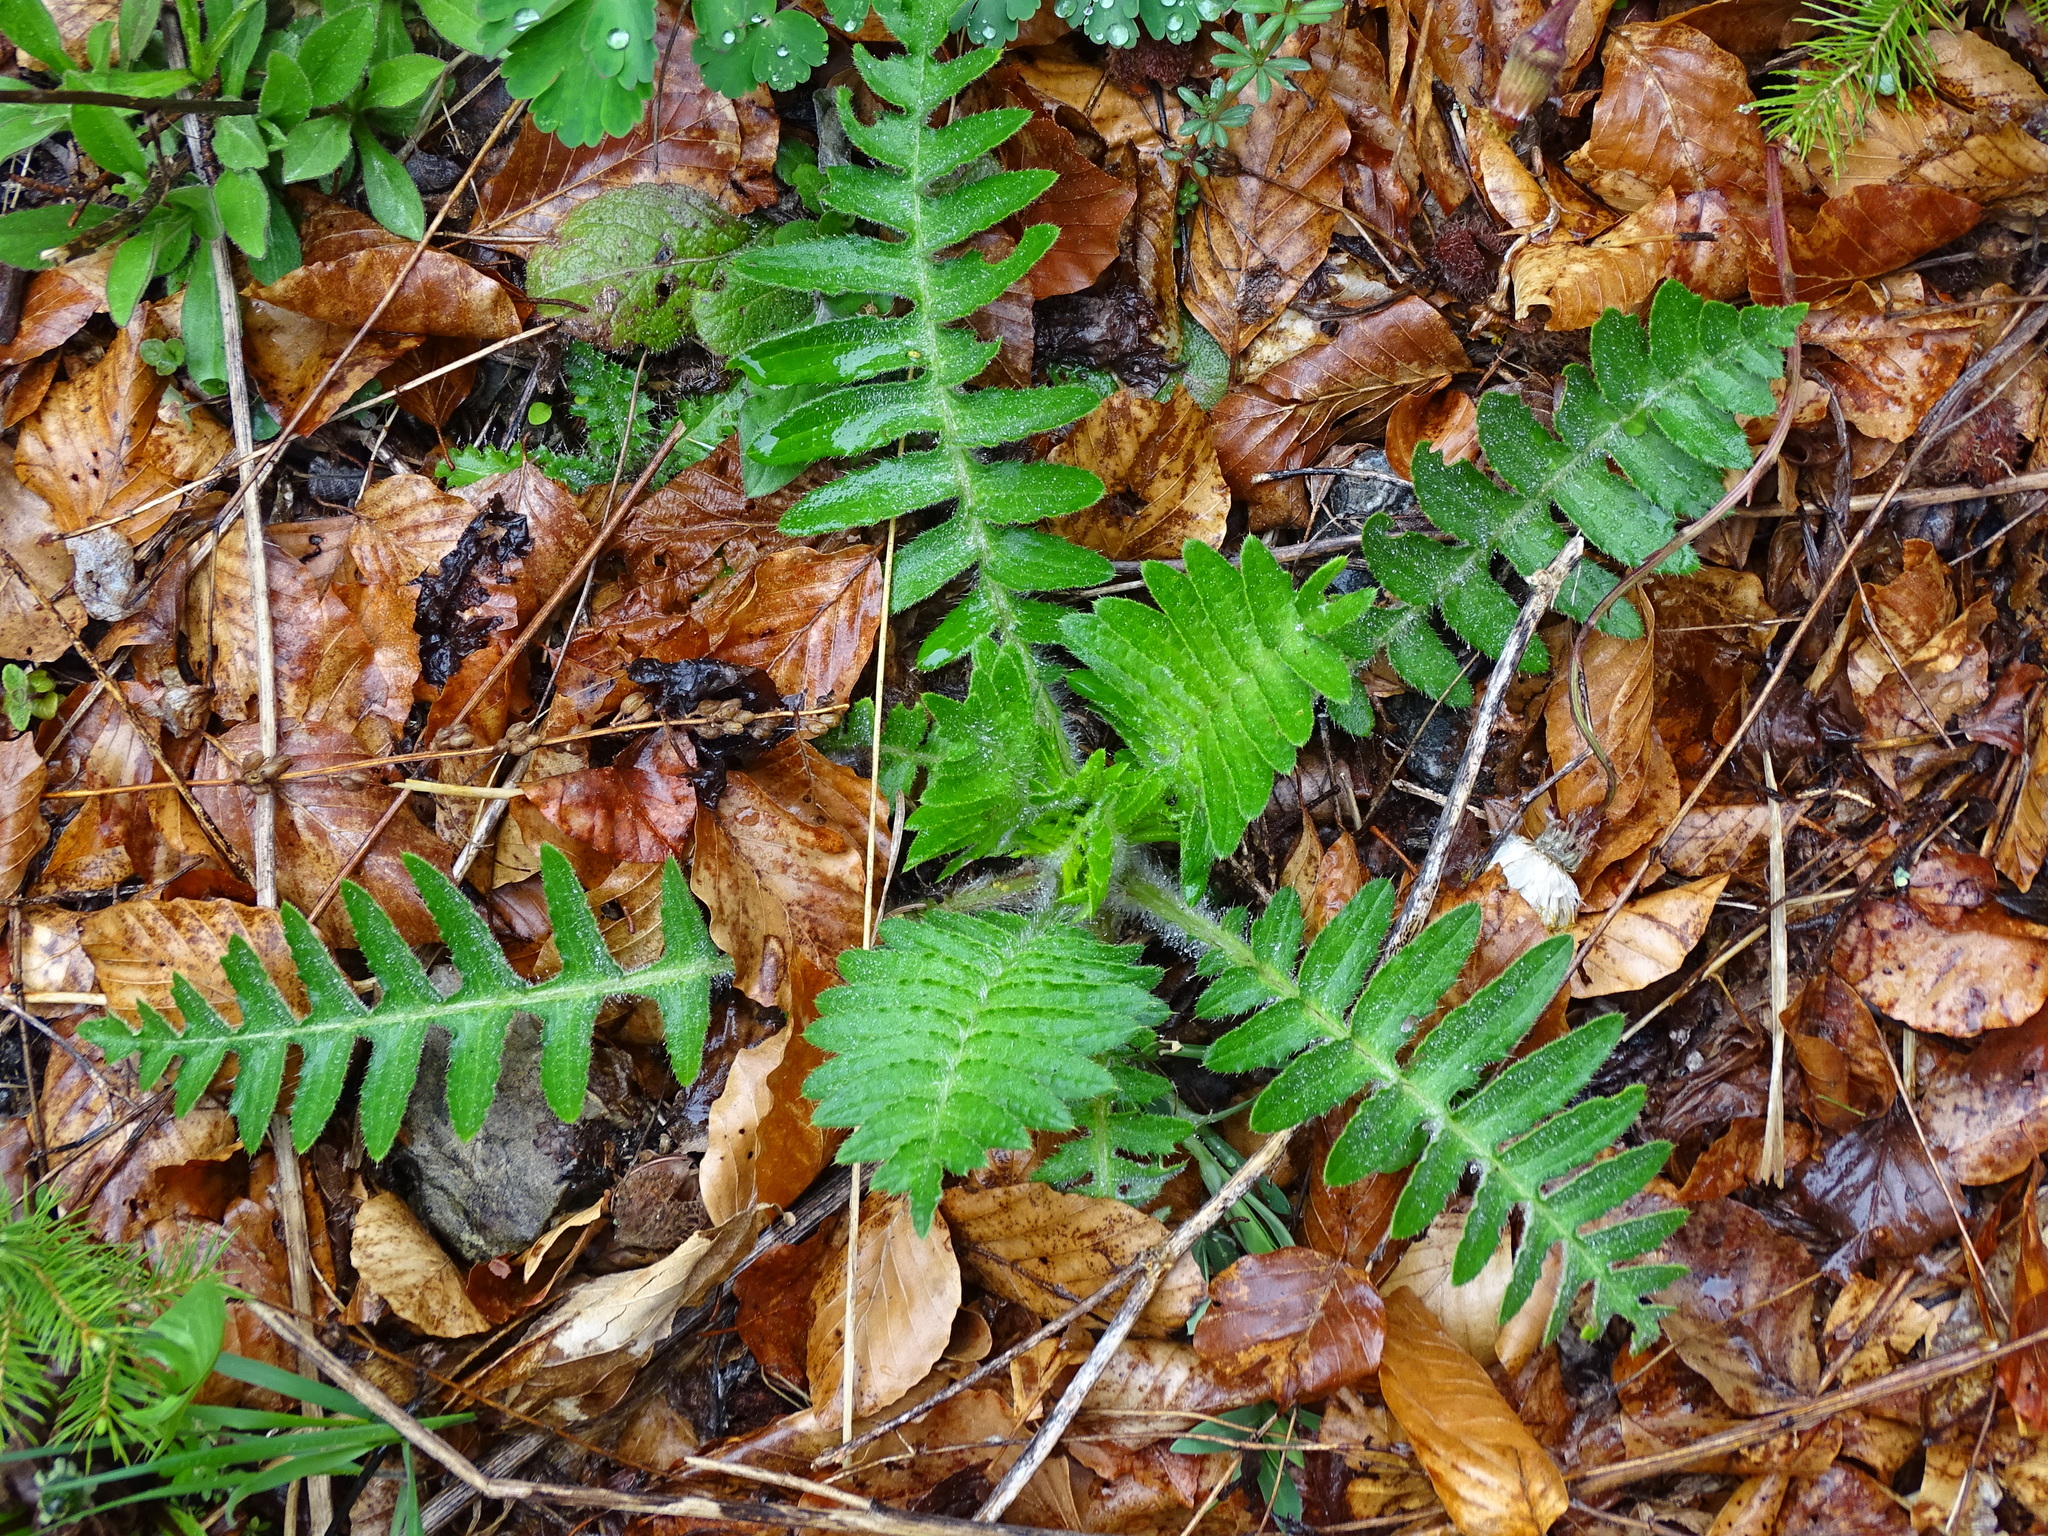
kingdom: Plantae
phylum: Tracheophyta
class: Magnoliopsida
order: Asterales
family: Asteraceae
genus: Cirsium
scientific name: Cirsium erisithales
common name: Yellow thistle
